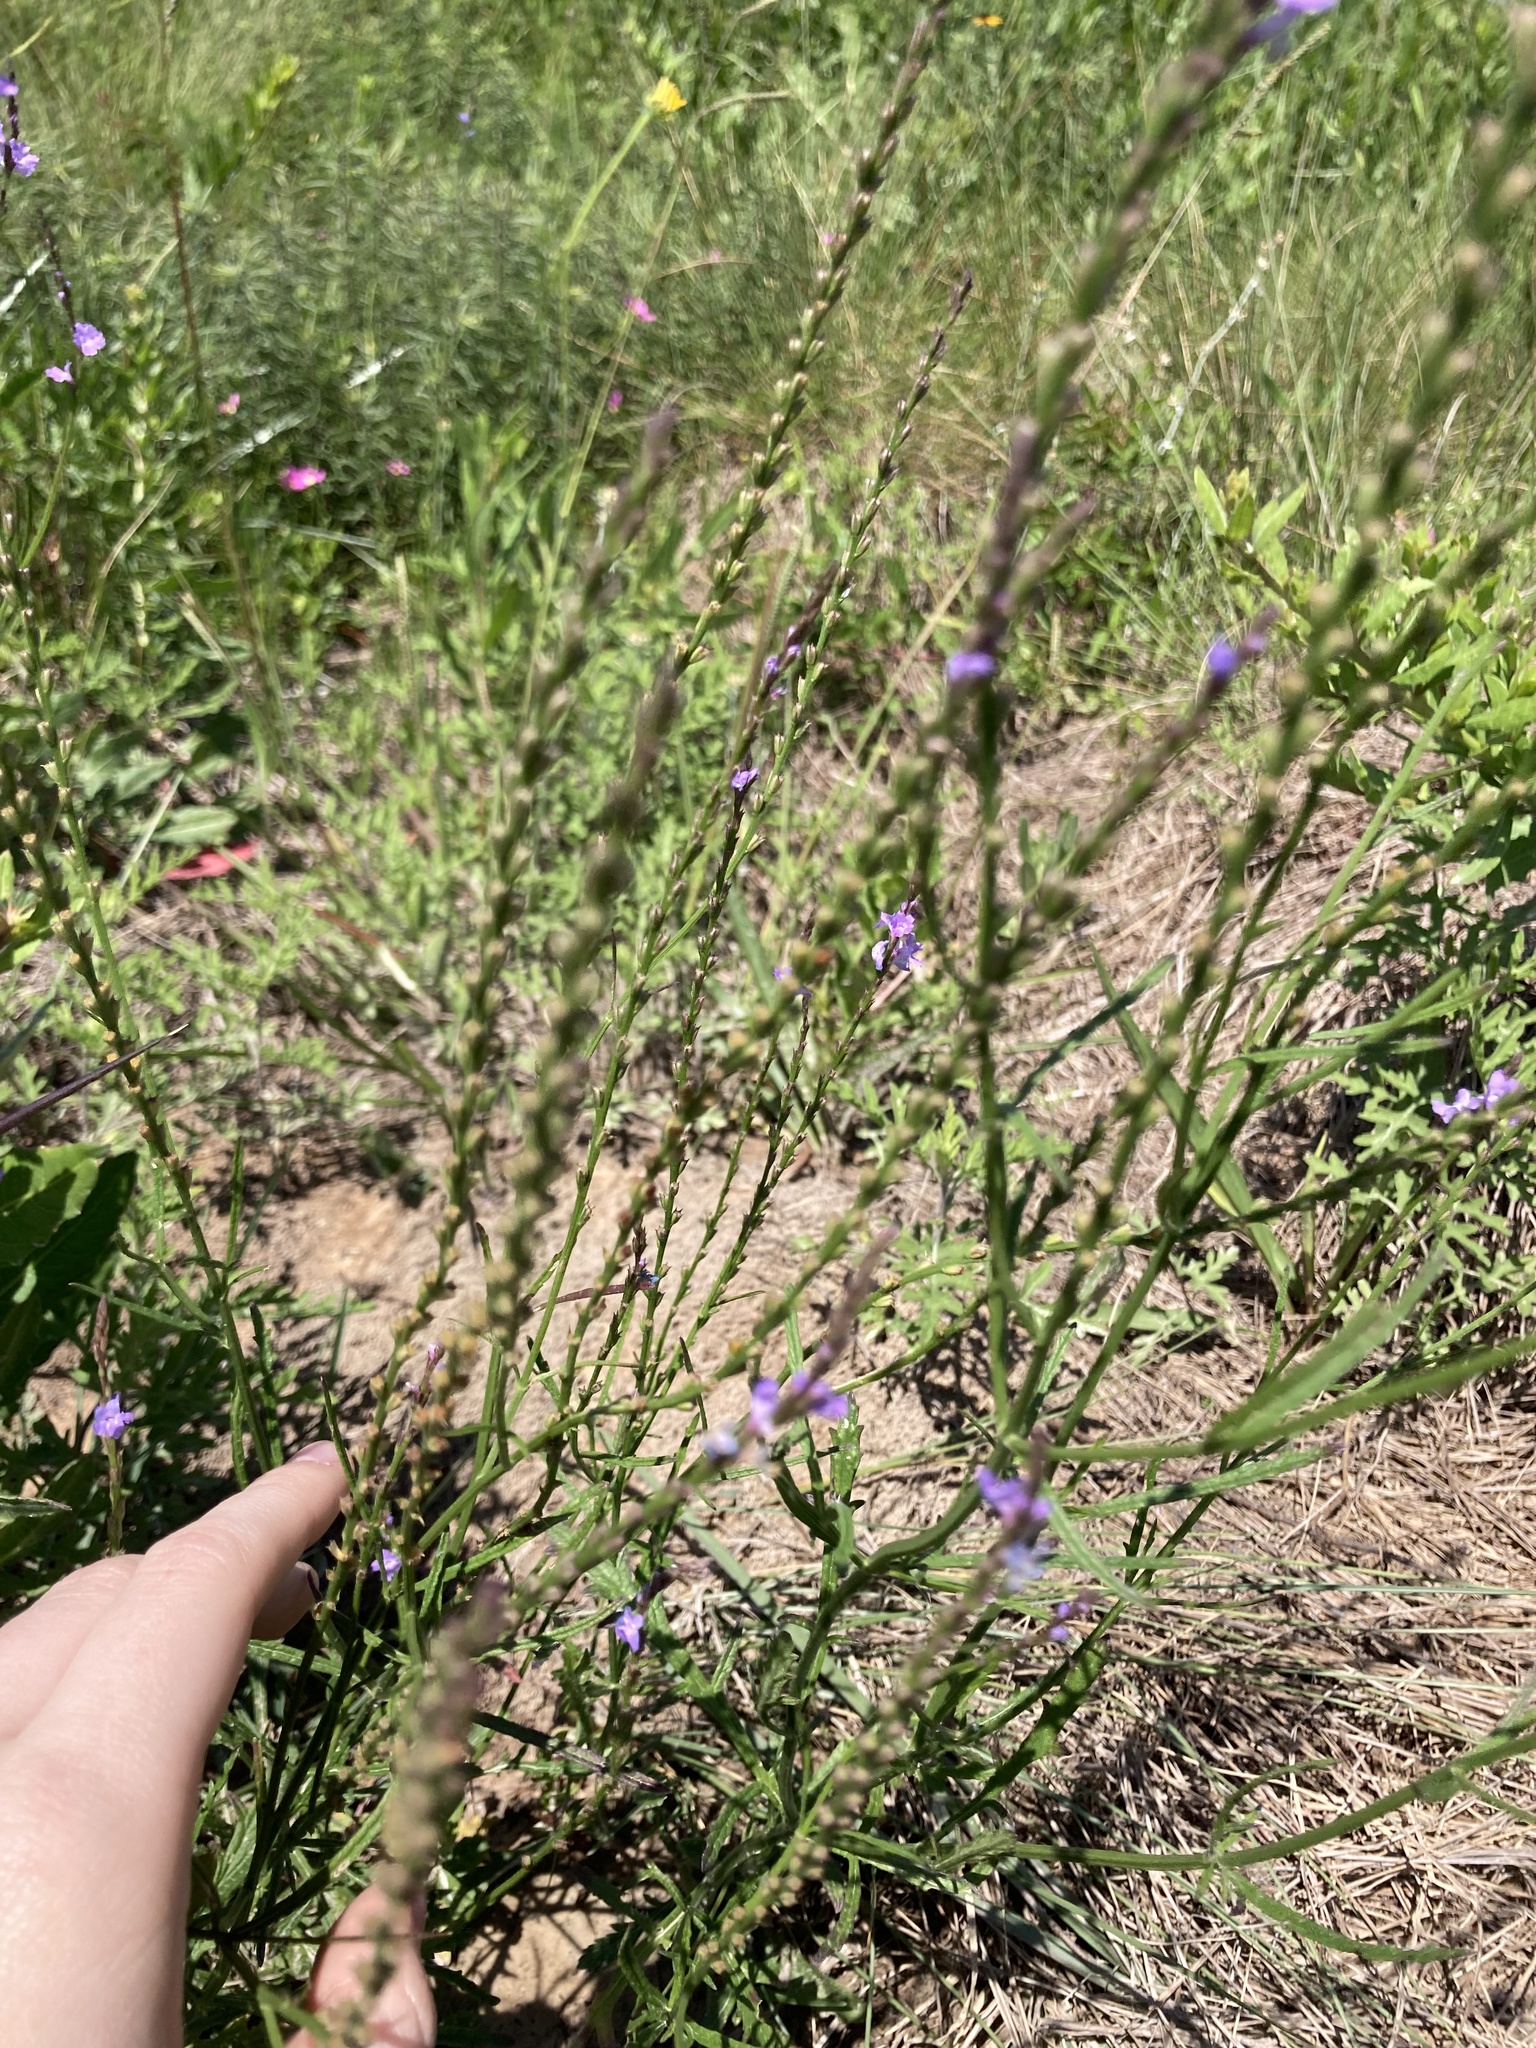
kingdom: Plantae
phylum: Tracheophyta
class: Magnoliopsida
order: Lamiales
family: Verbenaceae
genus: Verbena
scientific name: Verbena halei
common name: Texas vervain
